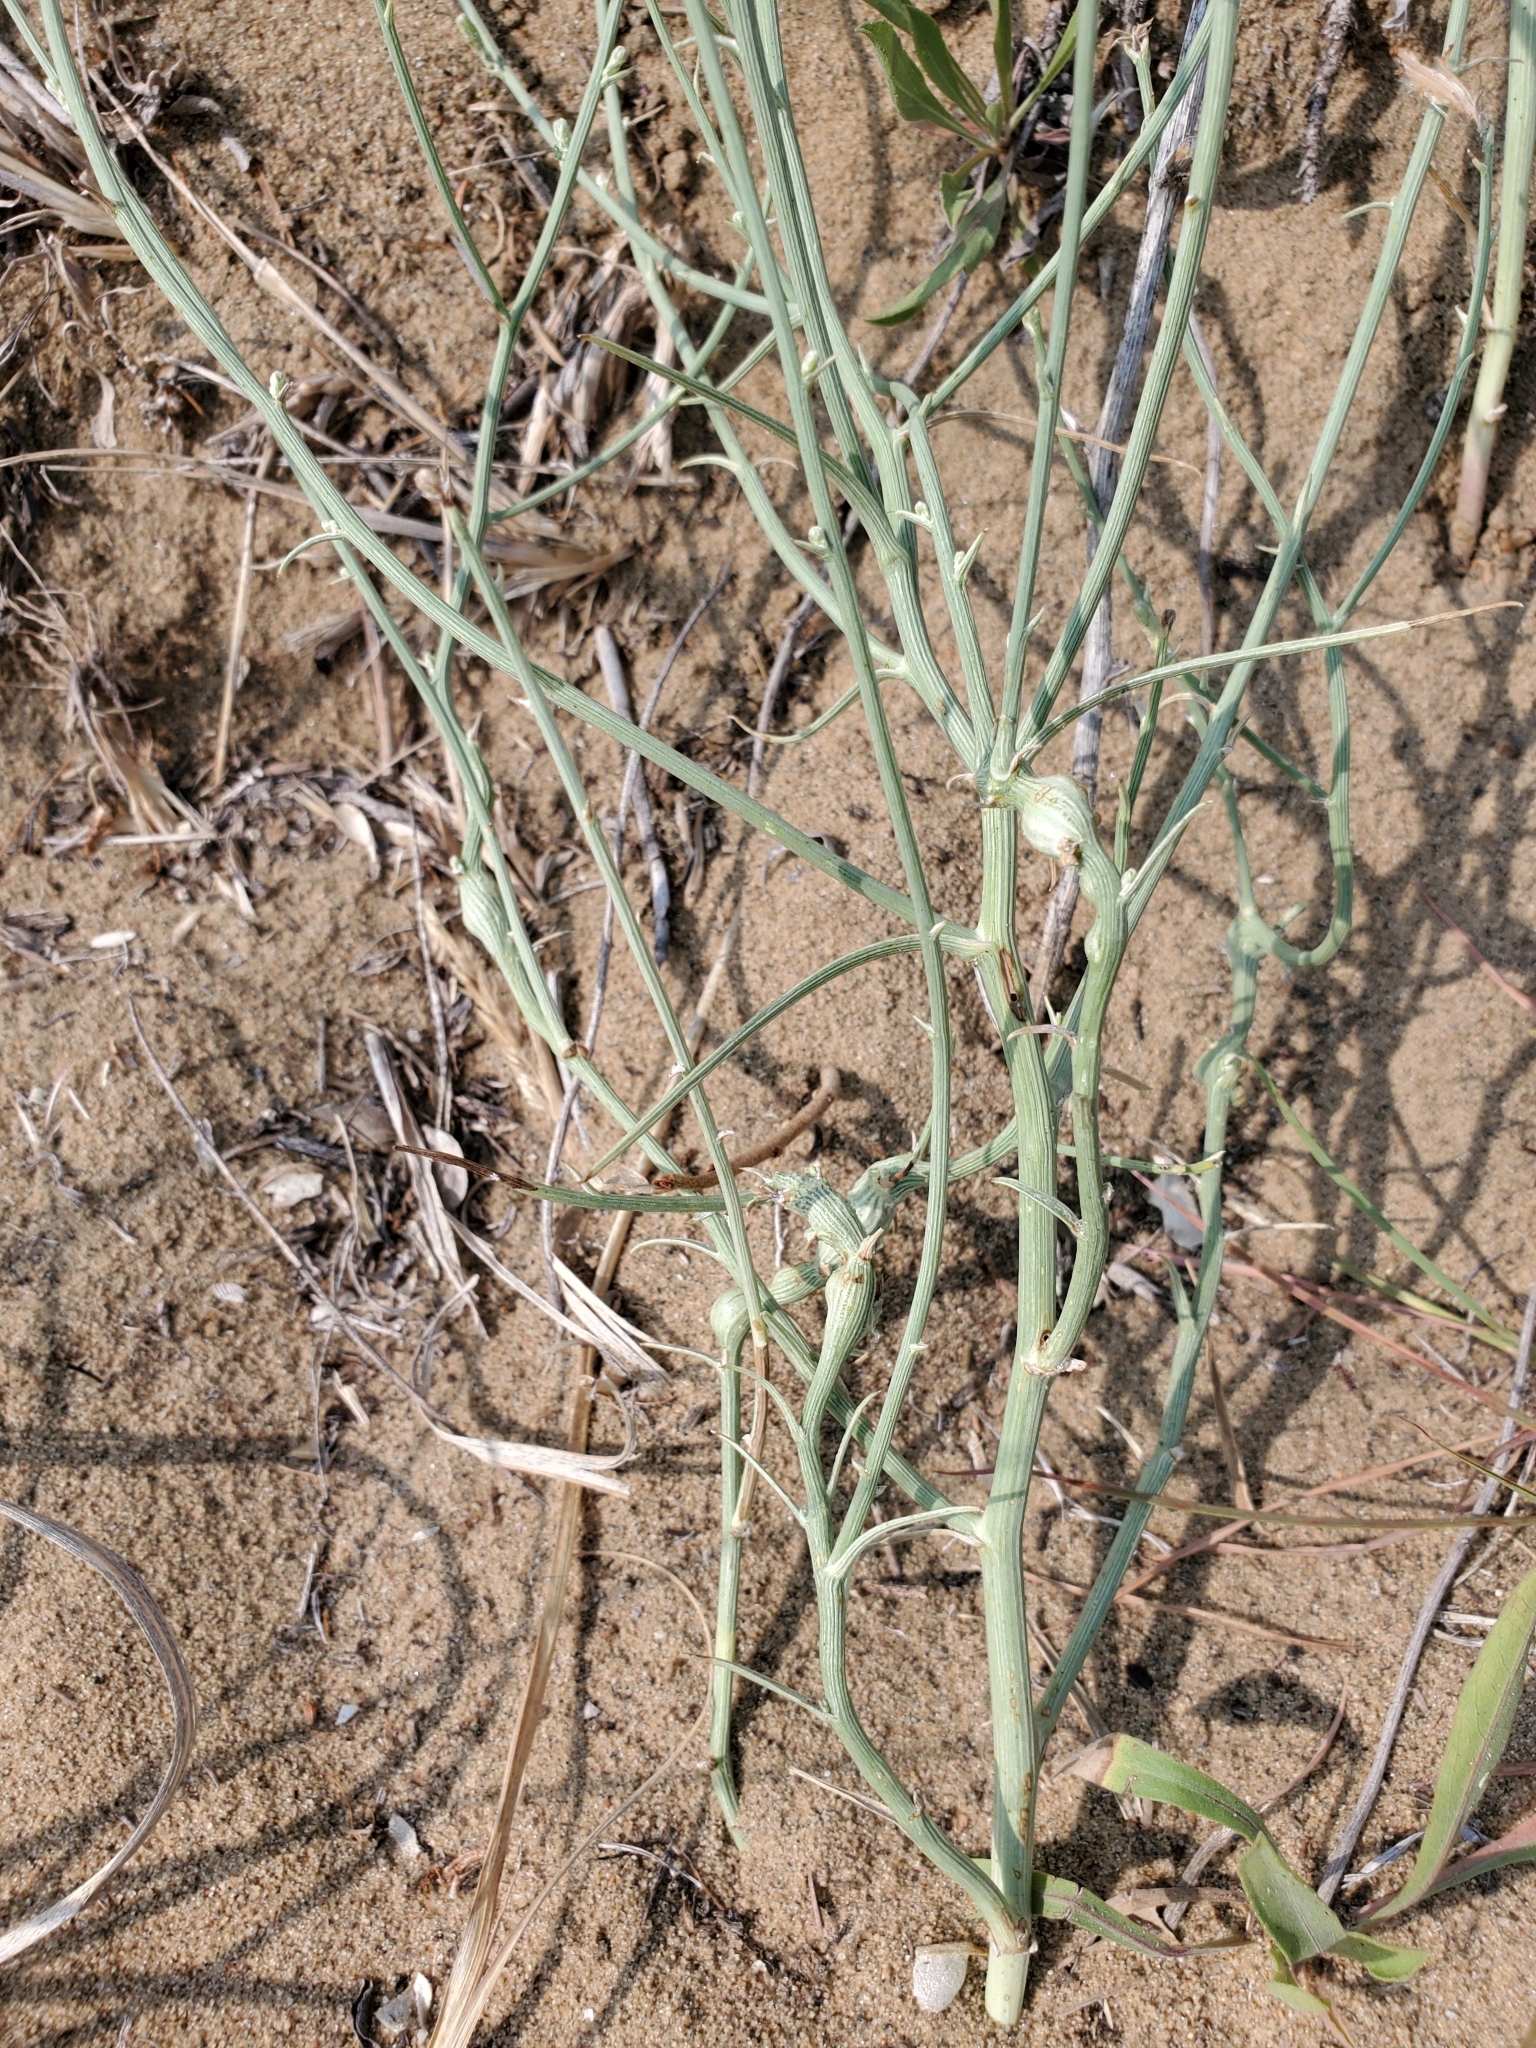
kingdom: Animalia
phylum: Arthropoda
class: Insecta
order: Hymenoptera
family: Cynipidae
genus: Antistrophus
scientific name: Antistrophus
